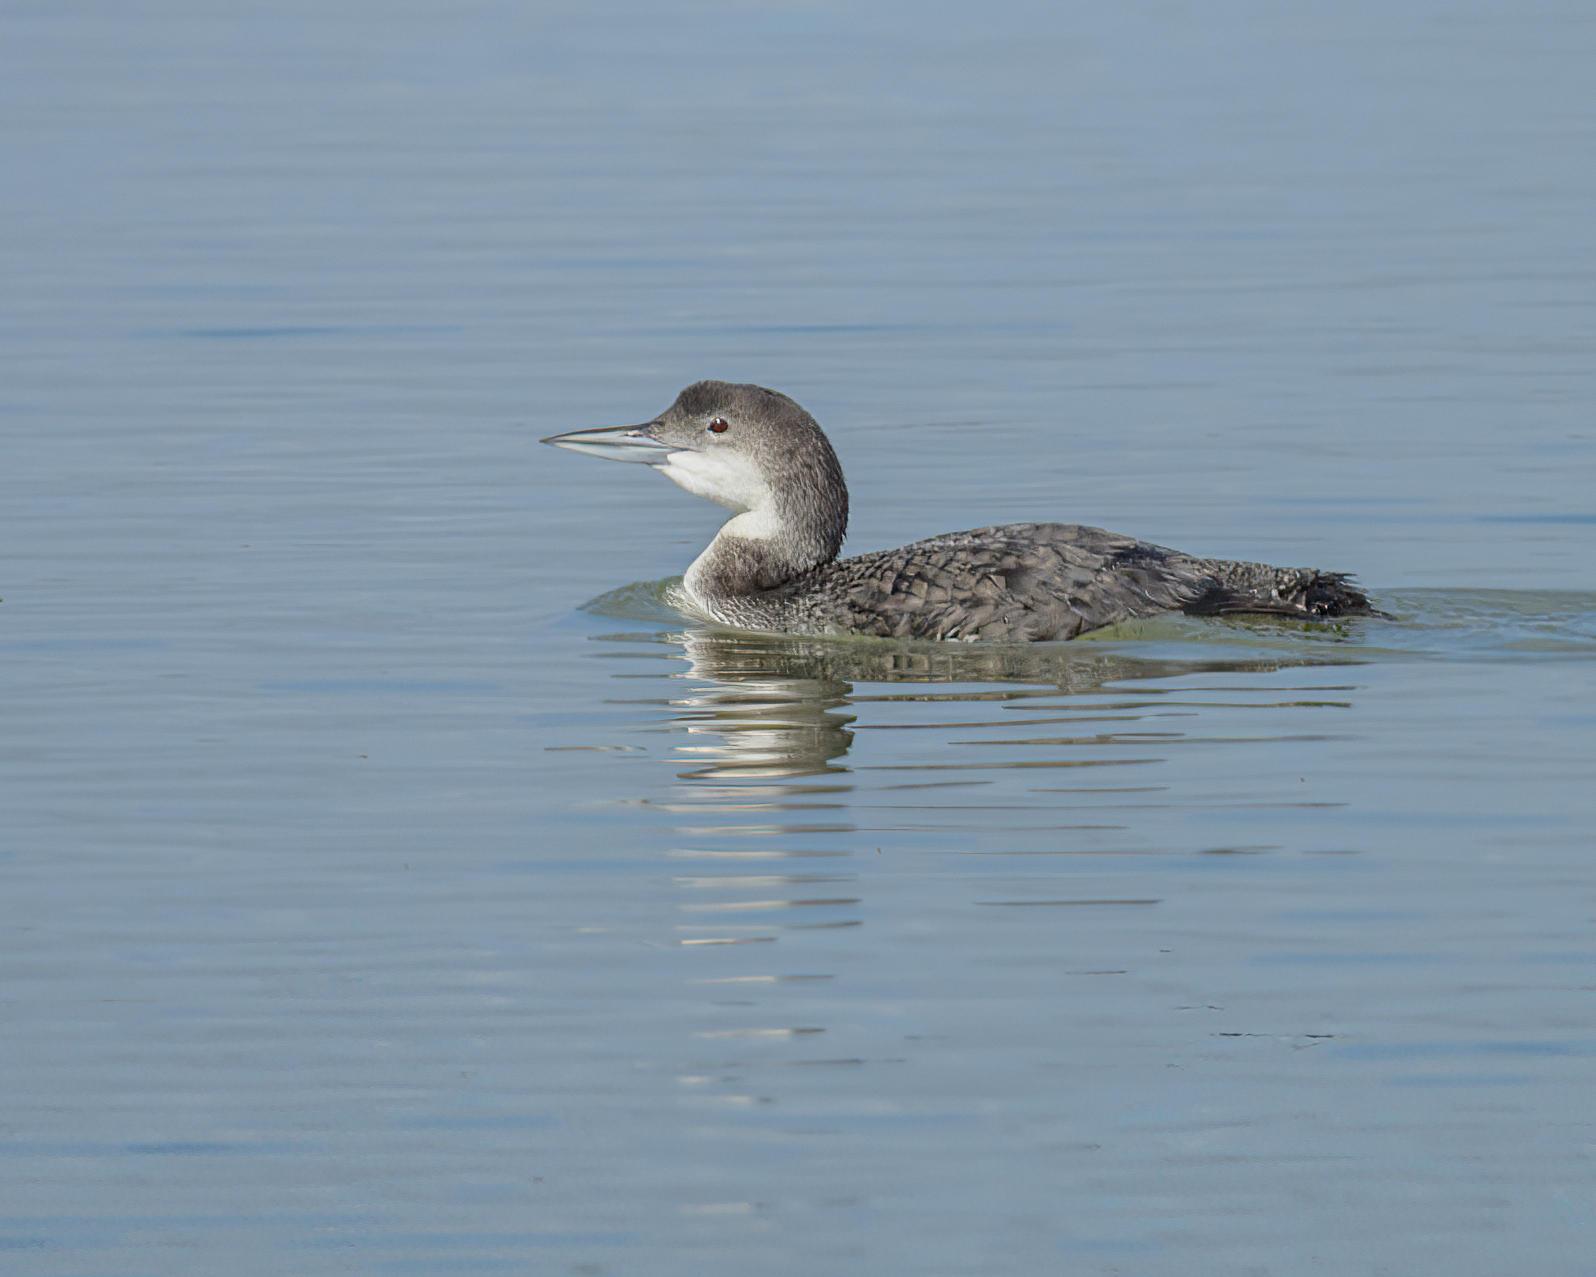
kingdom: Animalia
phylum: Chordata
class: Aves
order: Gaviiformes
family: Gaviidae
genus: Gavia
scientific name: Gavia immer
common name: Common loon
